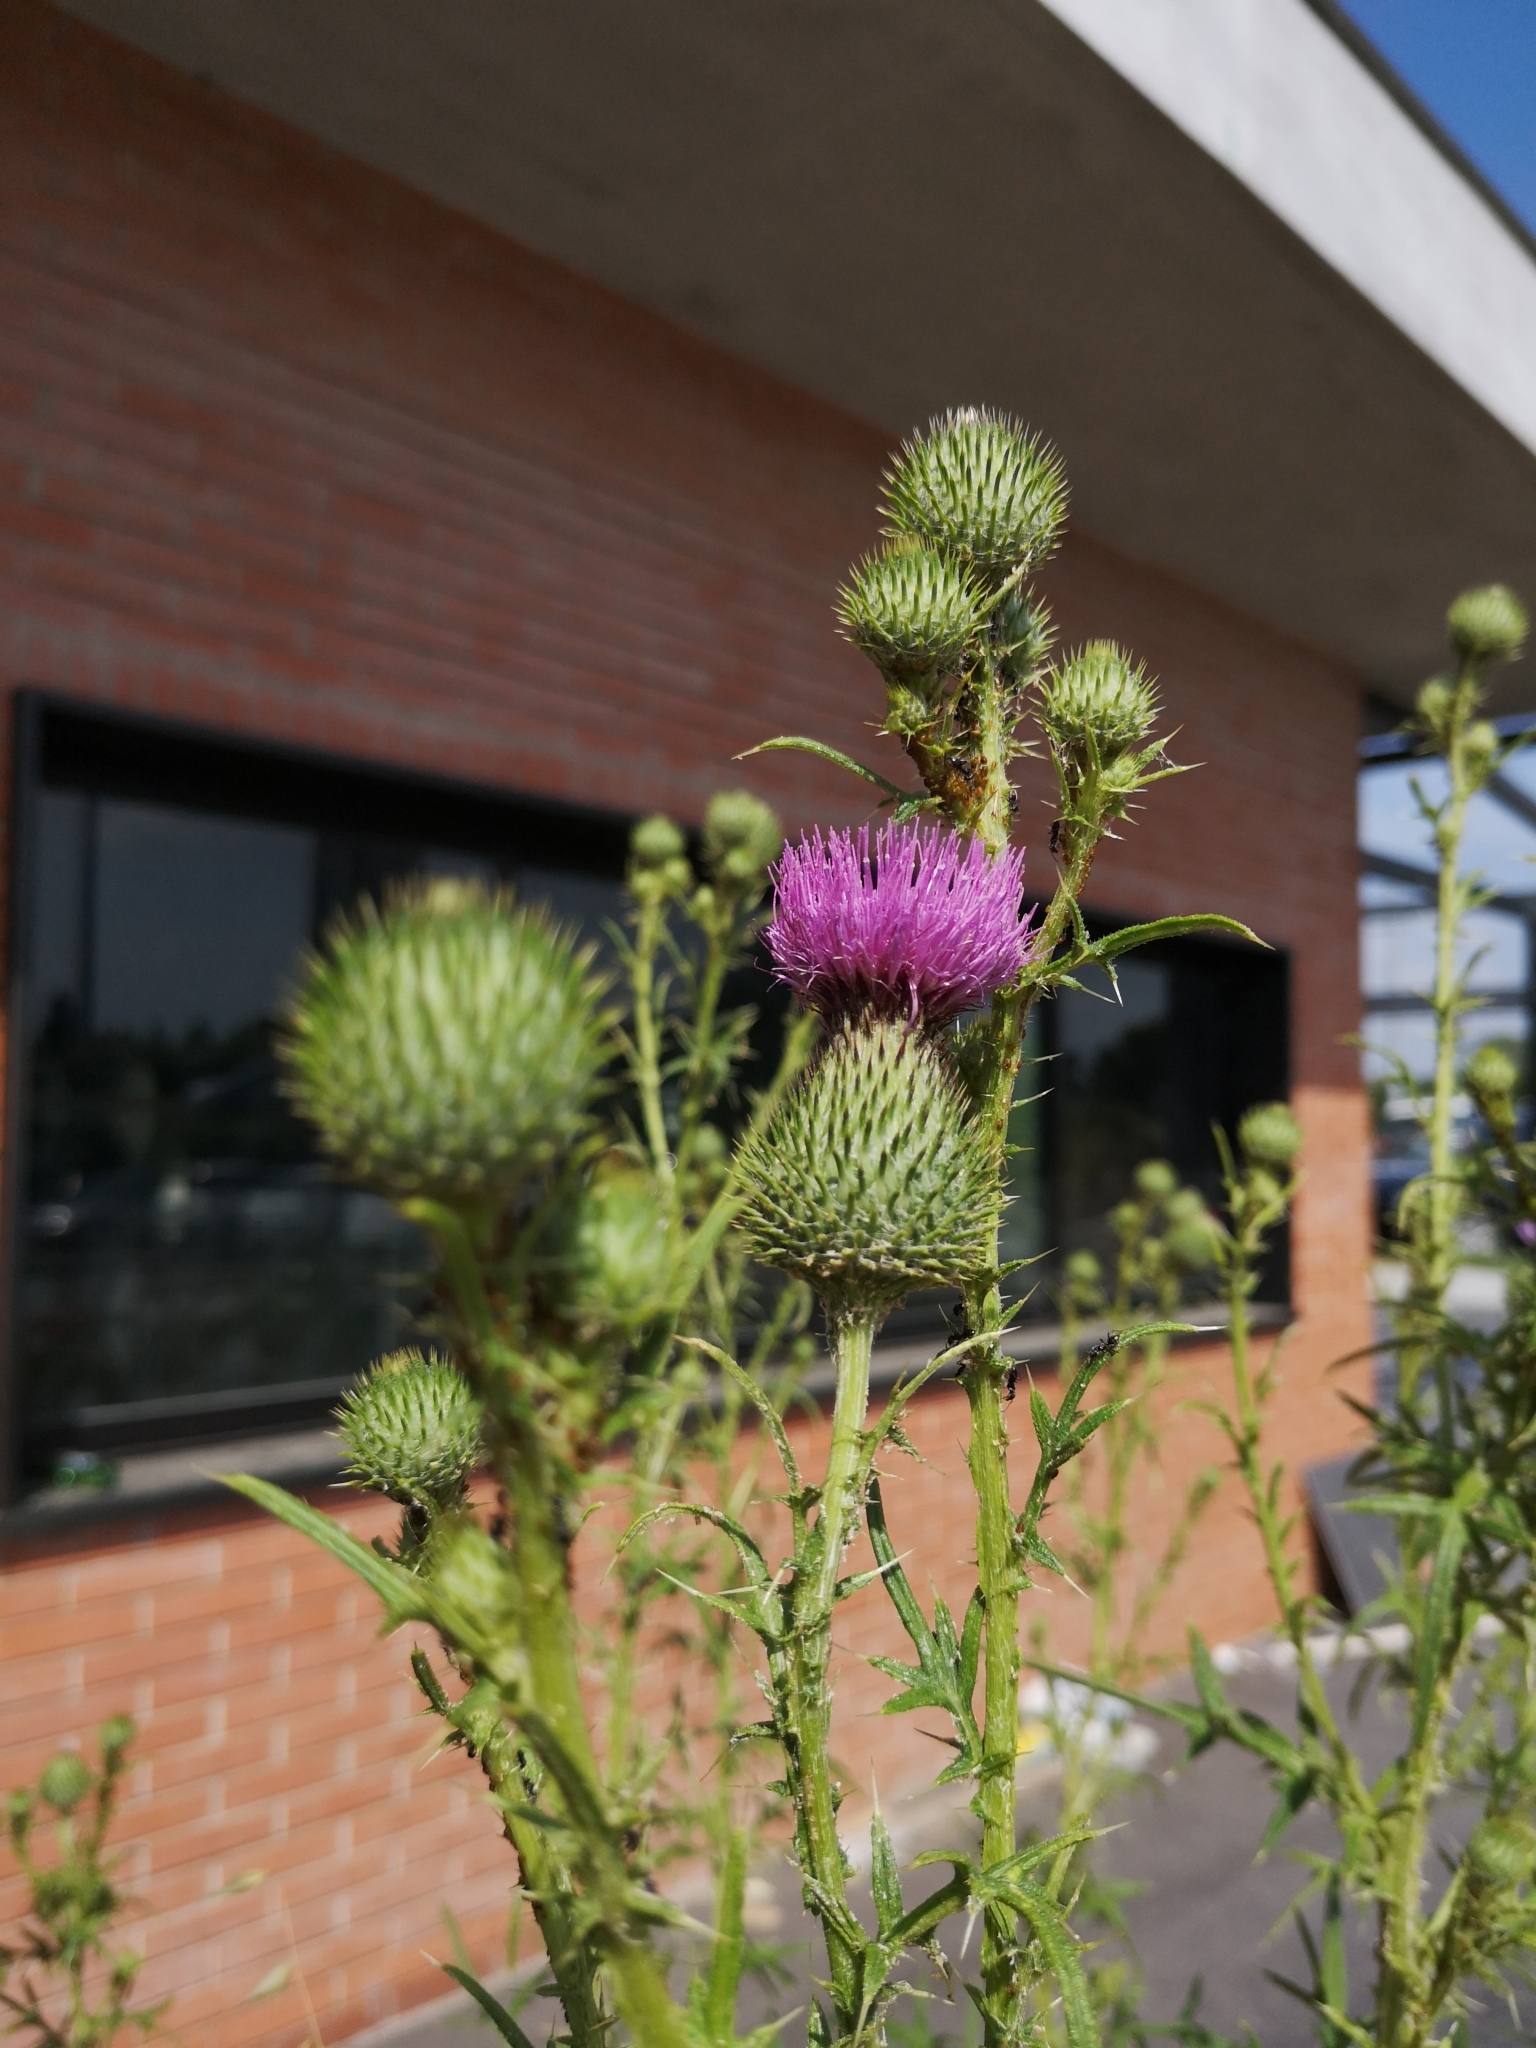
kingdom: Plantae
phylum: Tracheophyta
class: Magnoliopsida
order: Asterales
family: Asteraceae
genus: Cirsium
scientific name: Cirsium vulgare
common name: Bull thistle
